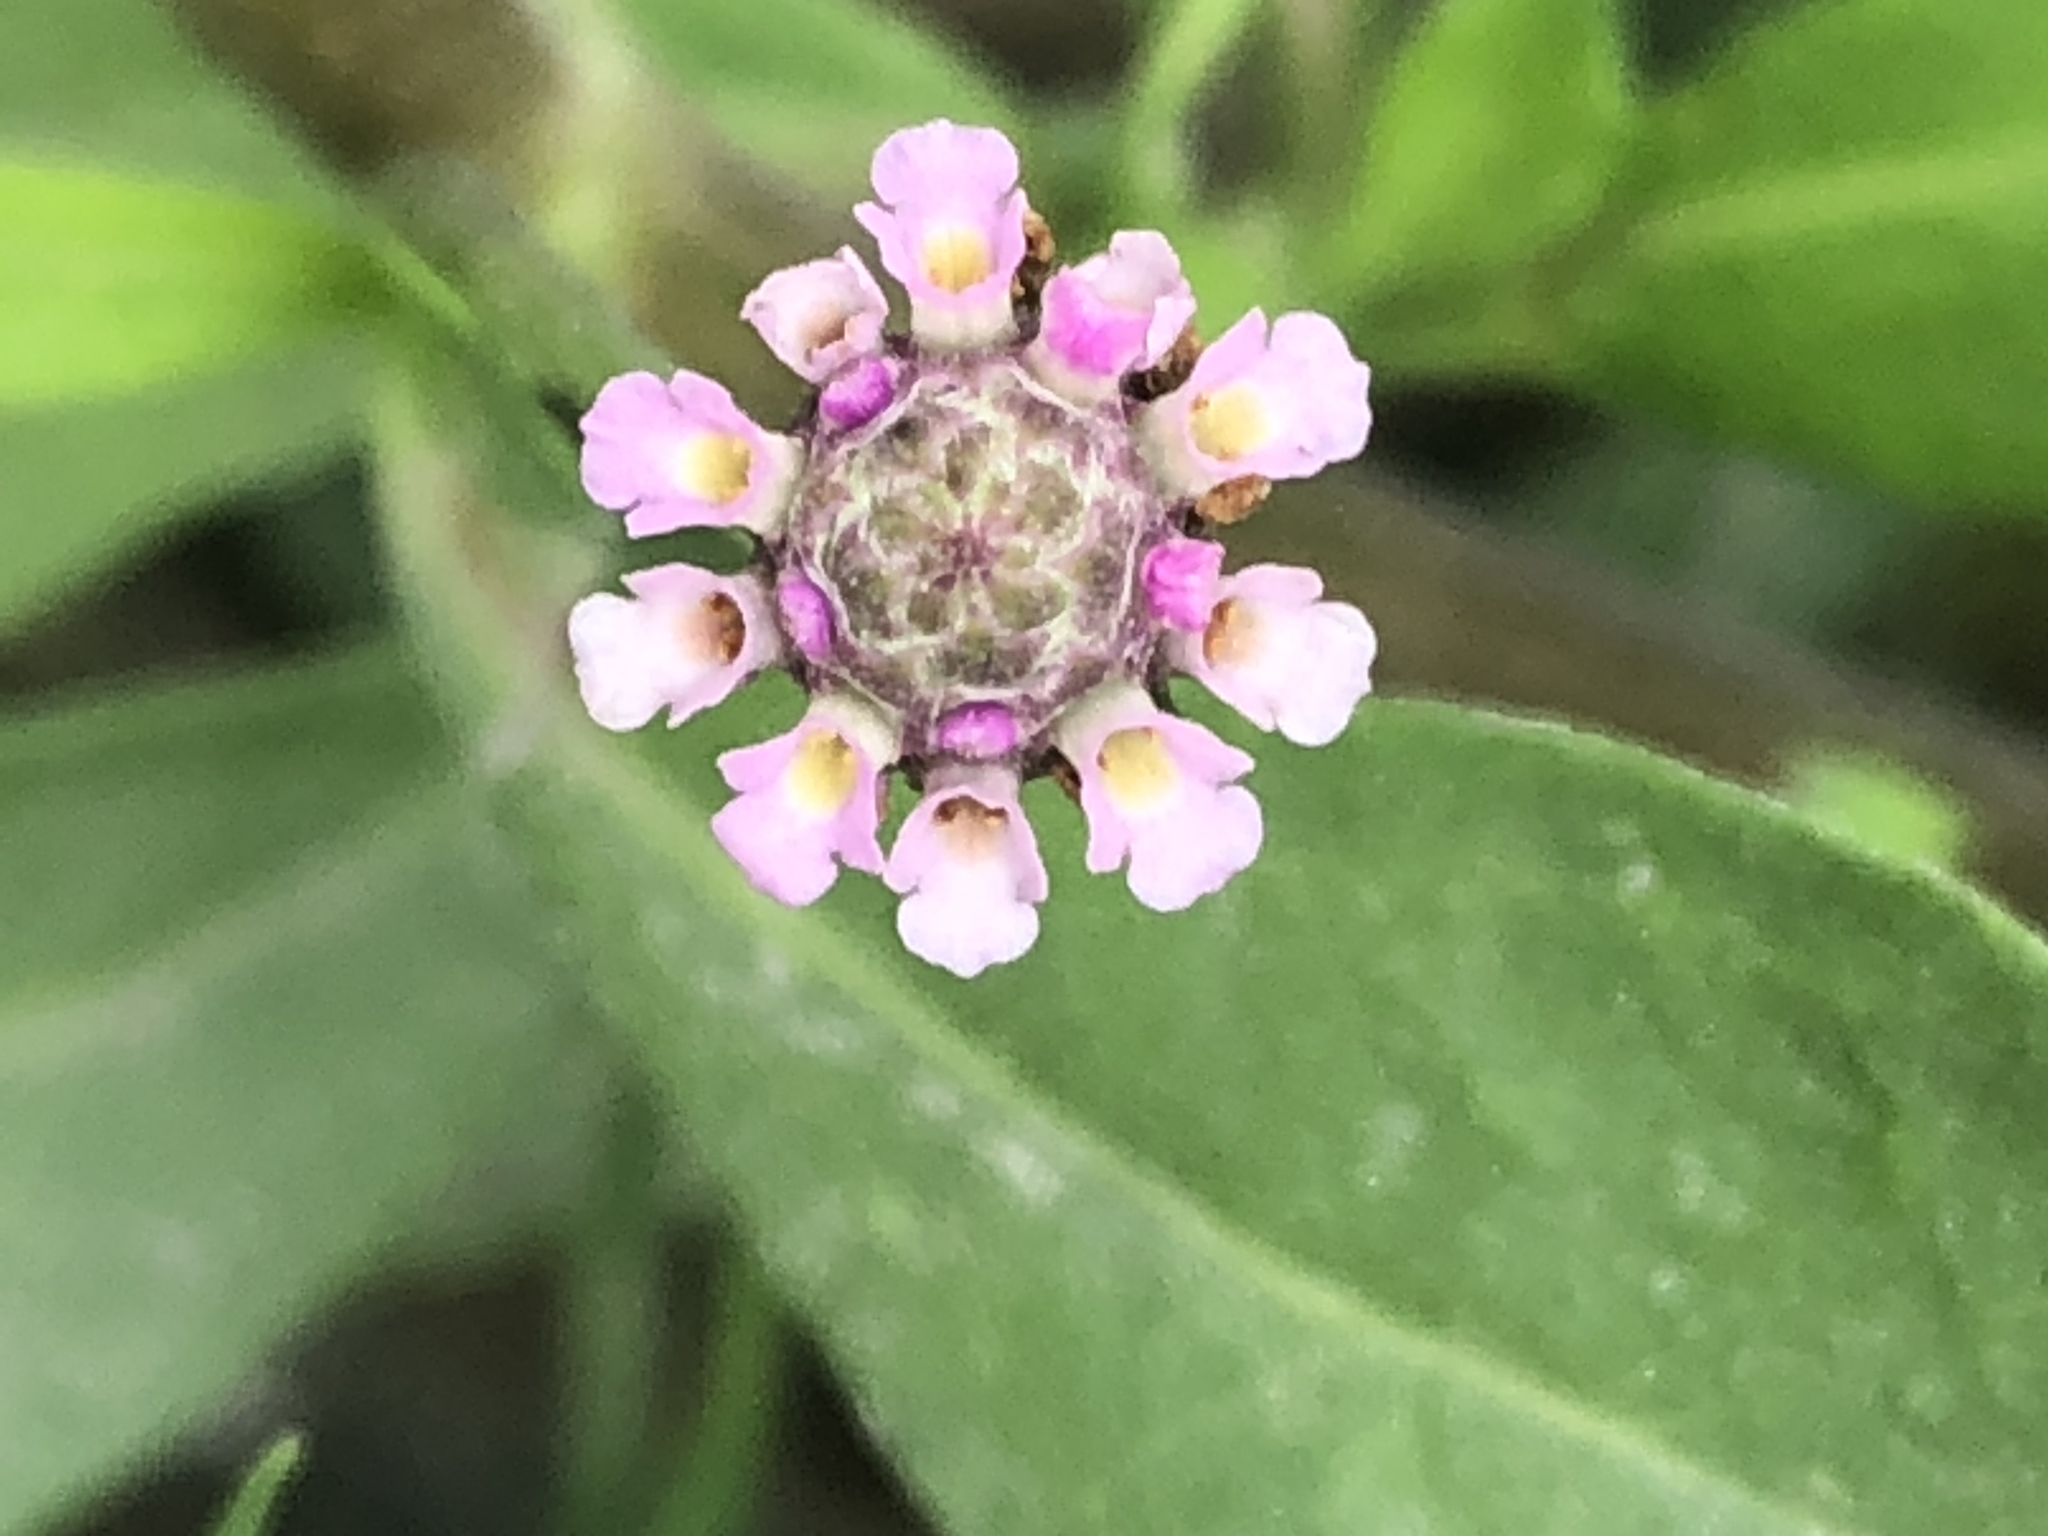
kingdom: Plantae
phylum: Tracheophyta
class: Magnoliopsida
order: Lamiales
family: Verbenaceae
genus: Phyla
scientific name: Phyla nodiflora
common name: Frogfruit
